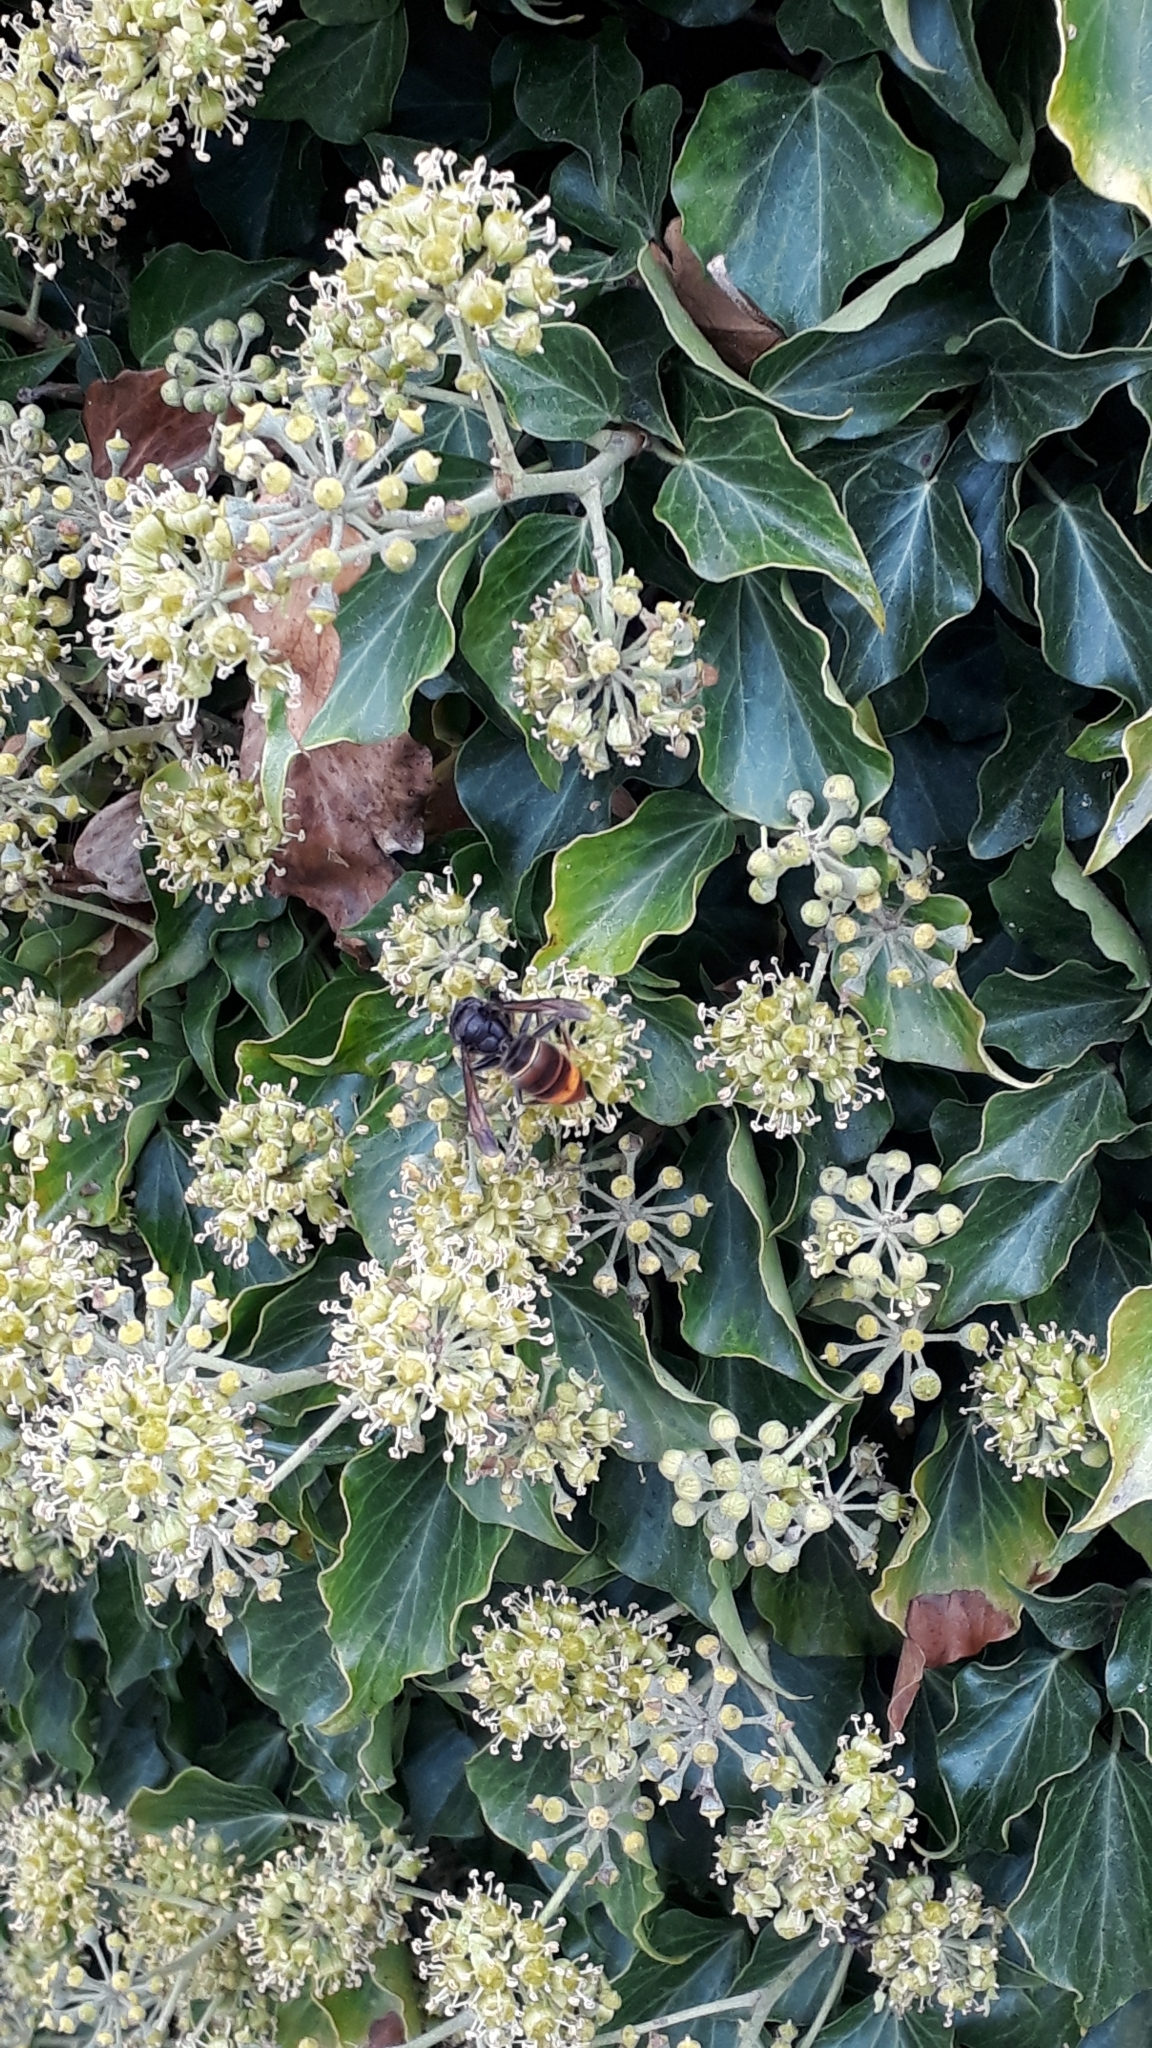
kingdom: Animalia
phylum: Arthropoda
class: Insecta
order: Hymenoptera
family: Vespidae
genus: Vespa
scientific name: Vespa velutina
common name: Asian hornet
